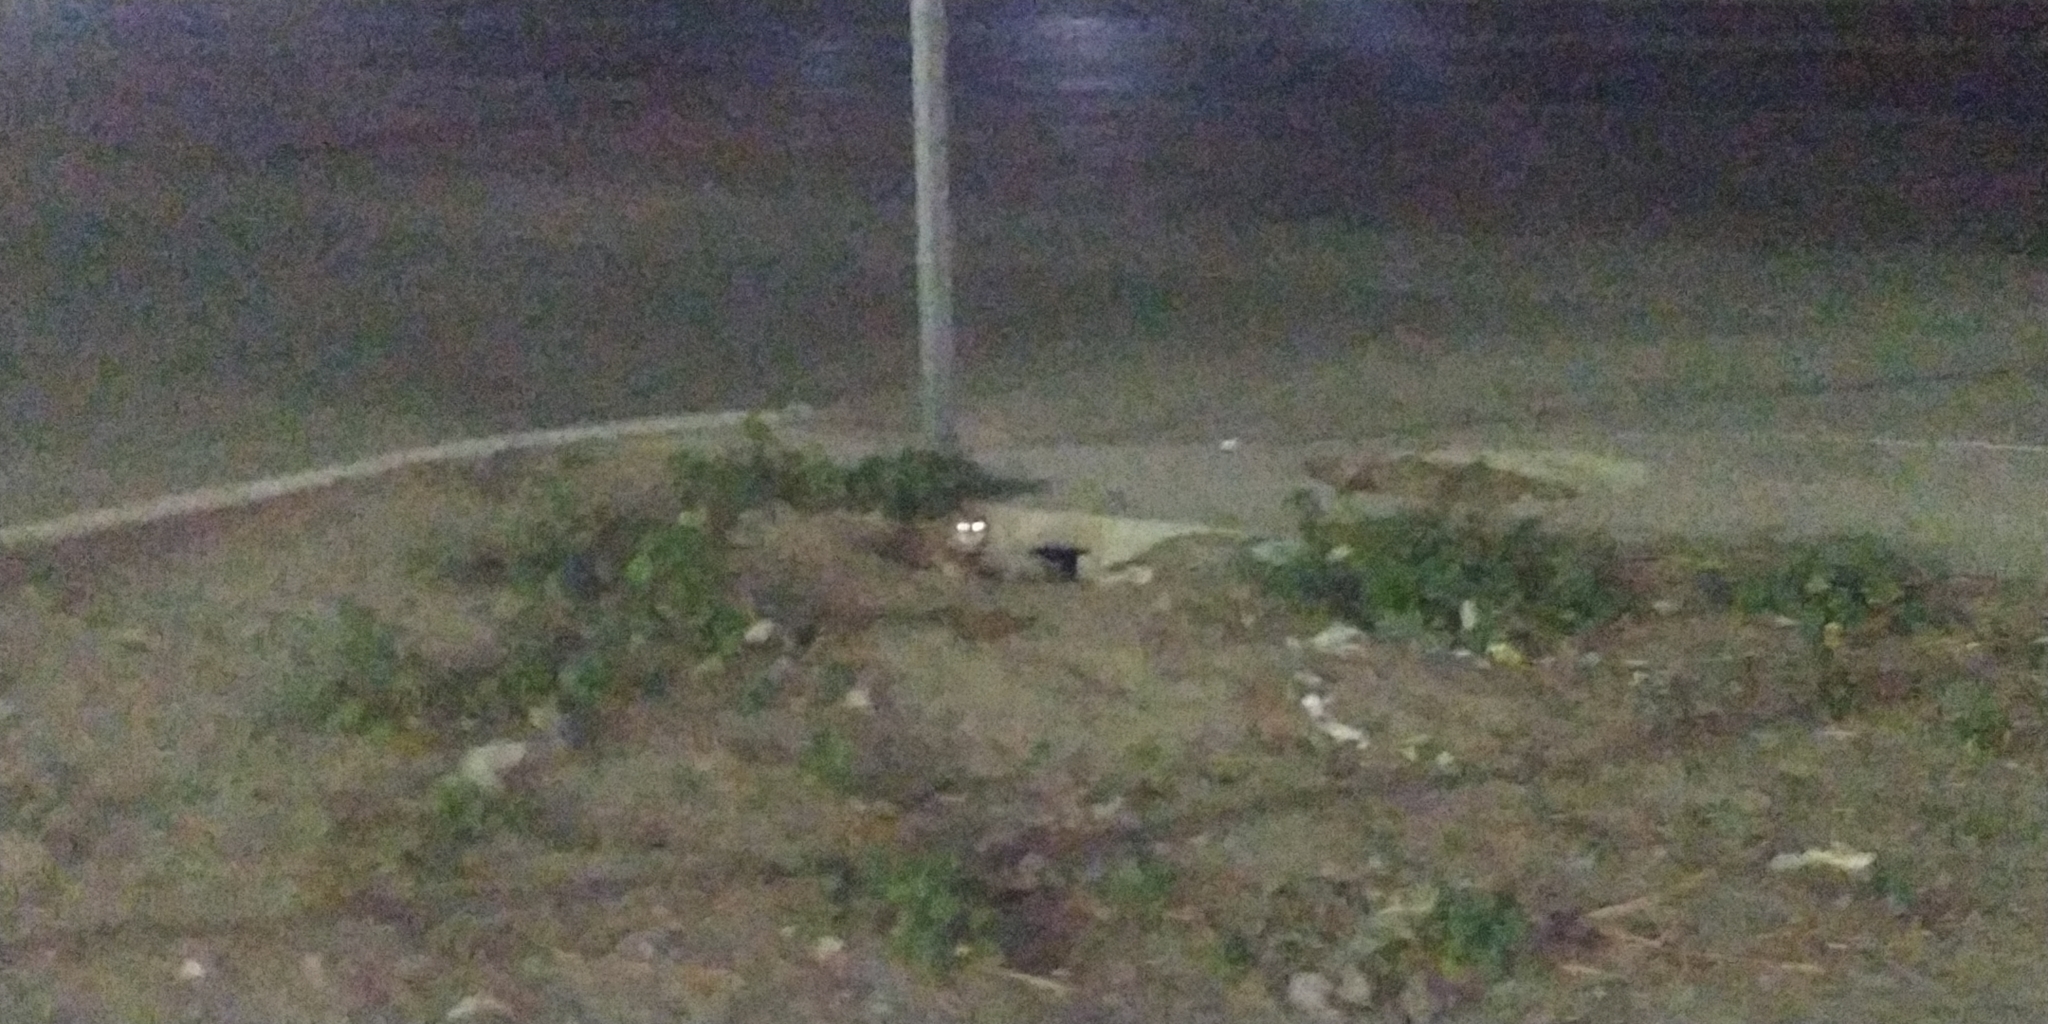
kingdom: Animalia
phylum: Chordata
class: Aves
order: Strigiformes
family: Strigidae
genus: Athene
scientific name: Athene cunicularia
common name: Burrowing owl
